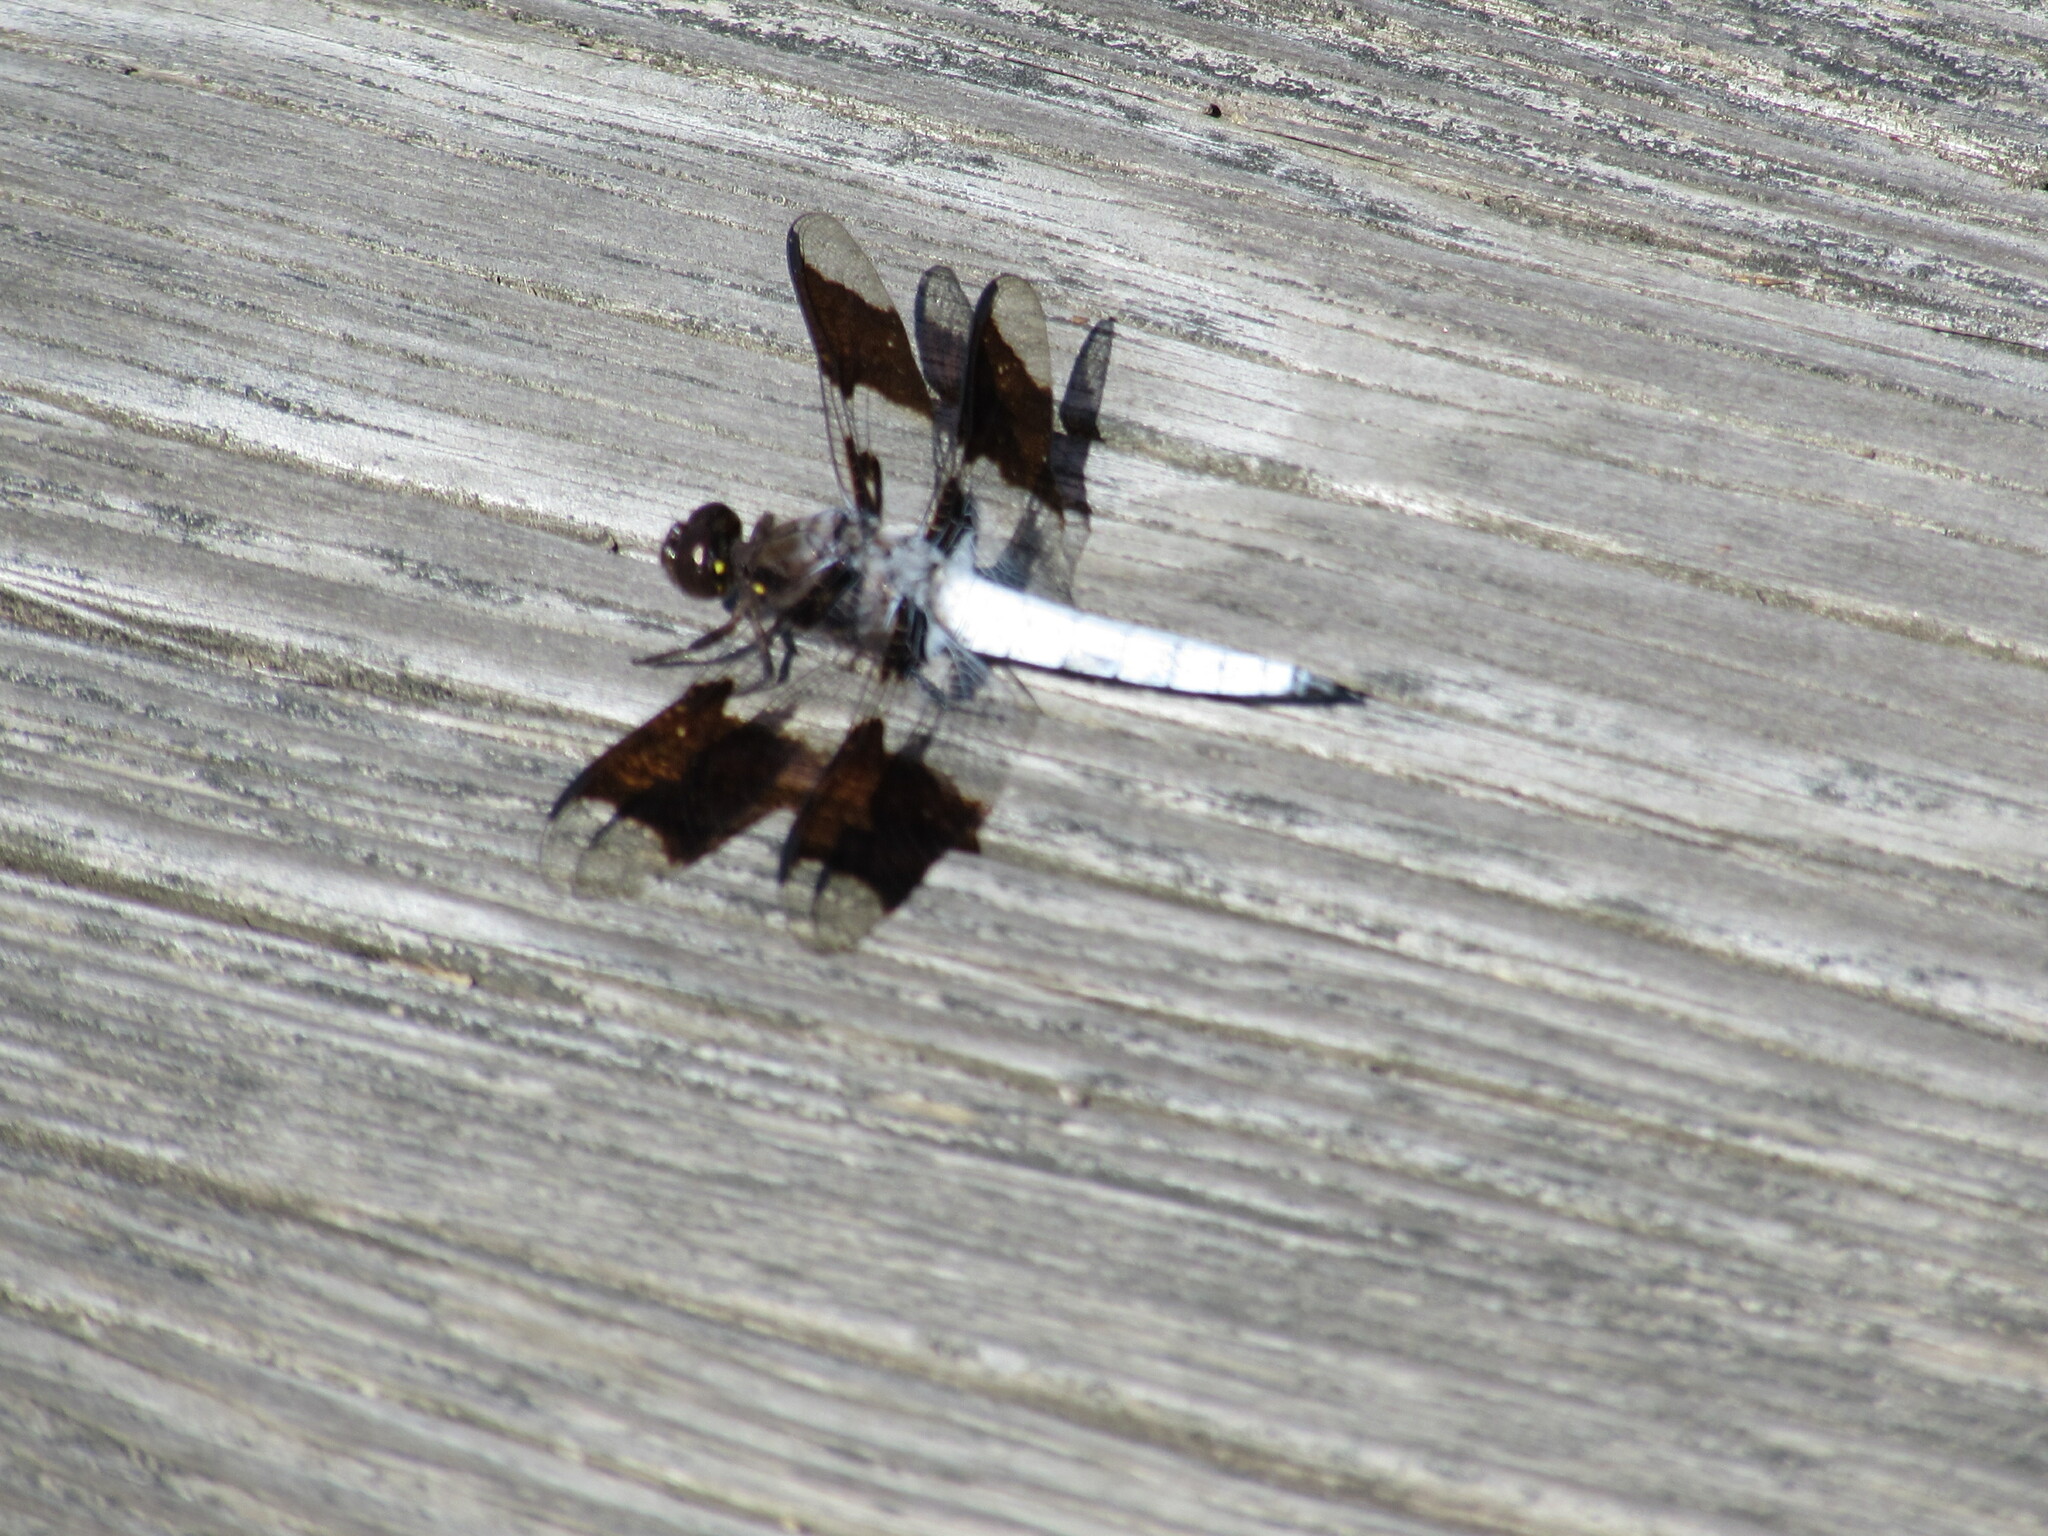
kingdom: Animalia
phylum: Arthropoda
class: Insecta
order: Odonata
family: Libellulidae
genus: Plathemis
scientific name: Plathemis lydia
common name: Common whitetail
